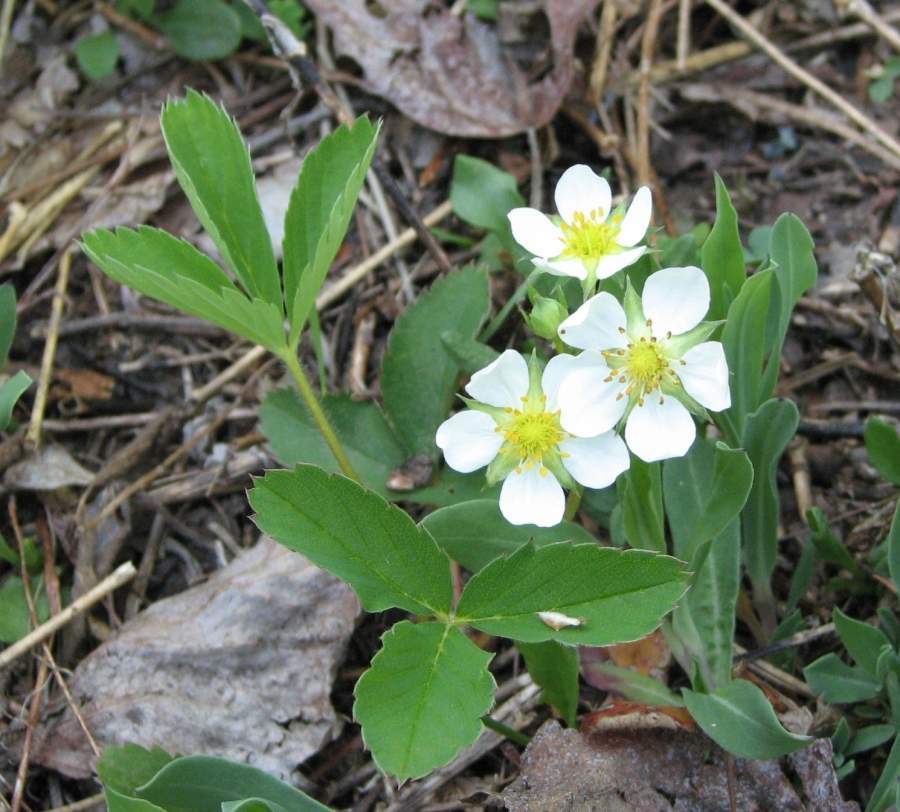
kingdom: Plantae
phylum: Tracheophyta
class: Magnoliopsida
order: Rosales
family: Rosaceae
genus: Fragaria
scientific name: Fragaria virginiana
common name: Thickleaved wild strawberry
